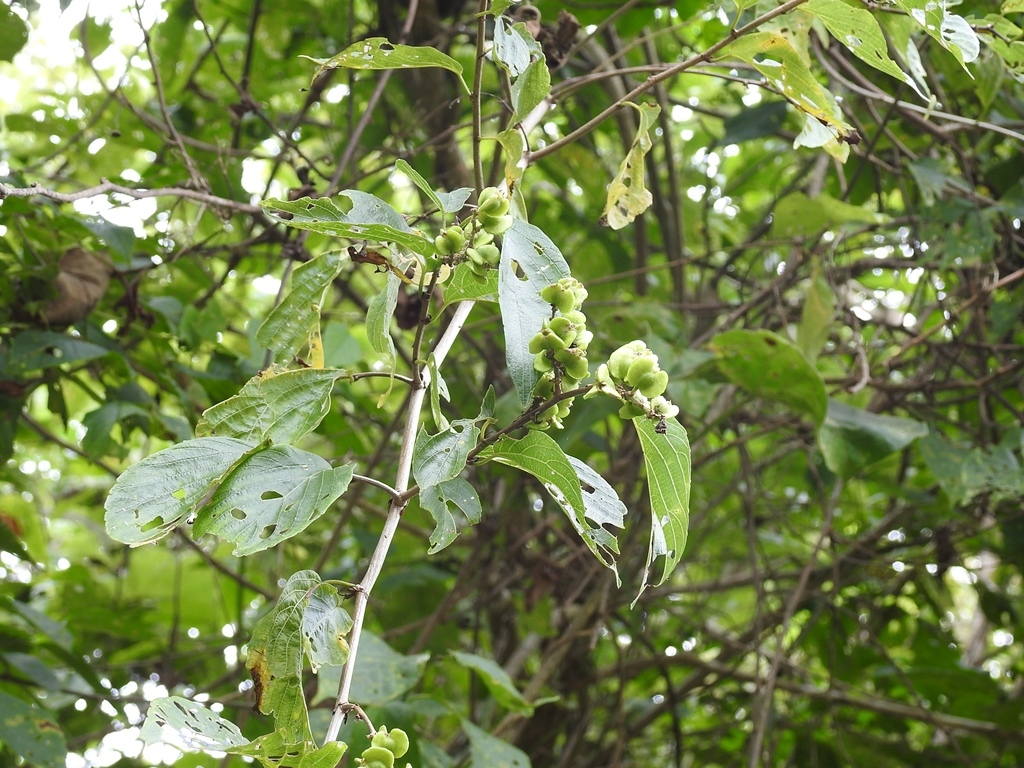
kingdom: Plantae
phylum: Tracheophyta
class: Magnoliopsida
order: Rosales
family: Rhamnaceae
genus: Gouania
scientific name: Gouania lupuloides
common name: Chewstick
